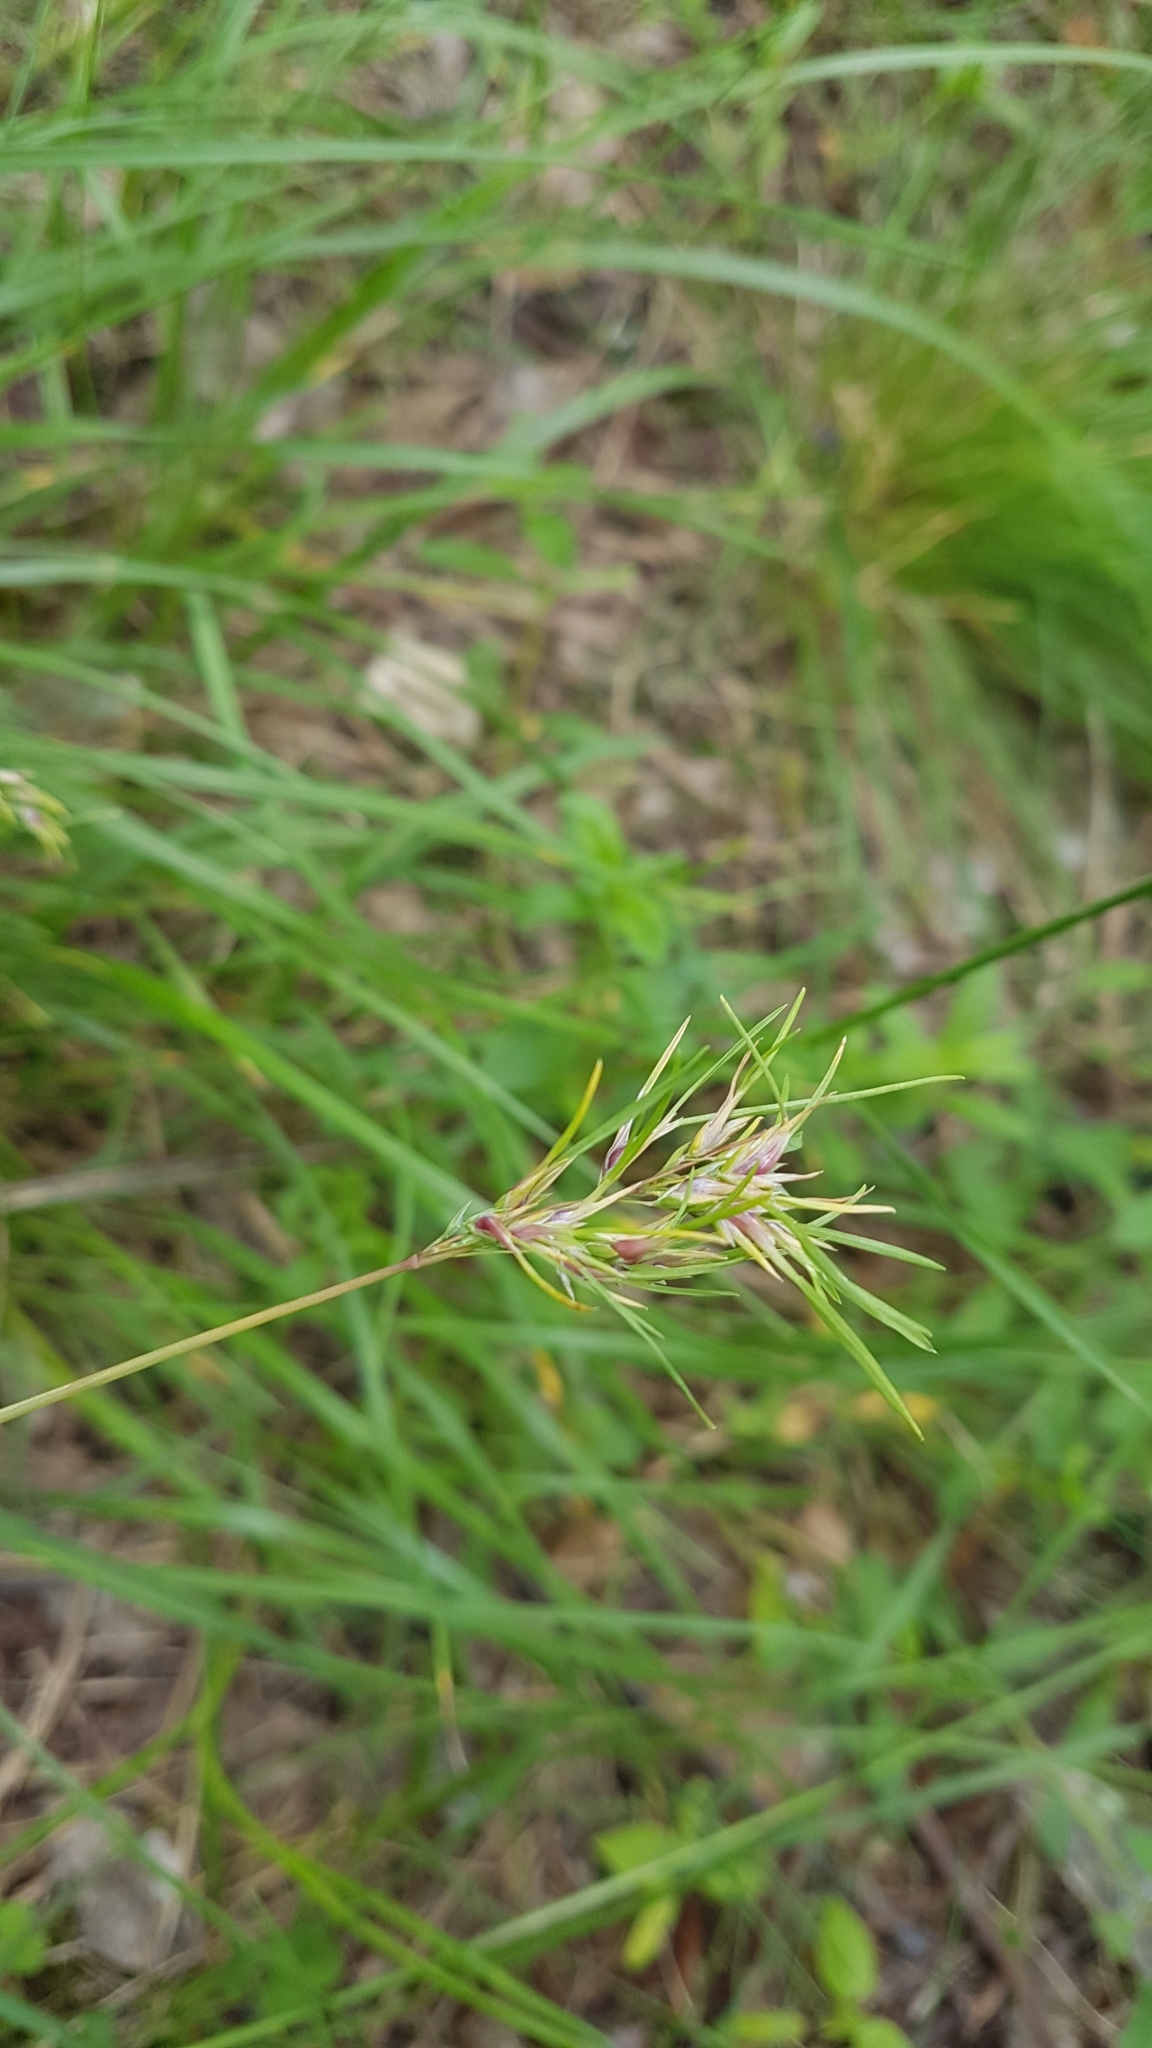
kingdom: Plantae
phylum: Tracheophyta
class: Liliopsida
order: Poales
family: Poaceae
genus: Poa
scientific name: Poa bulbosa
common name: Bulbous bluegrass
